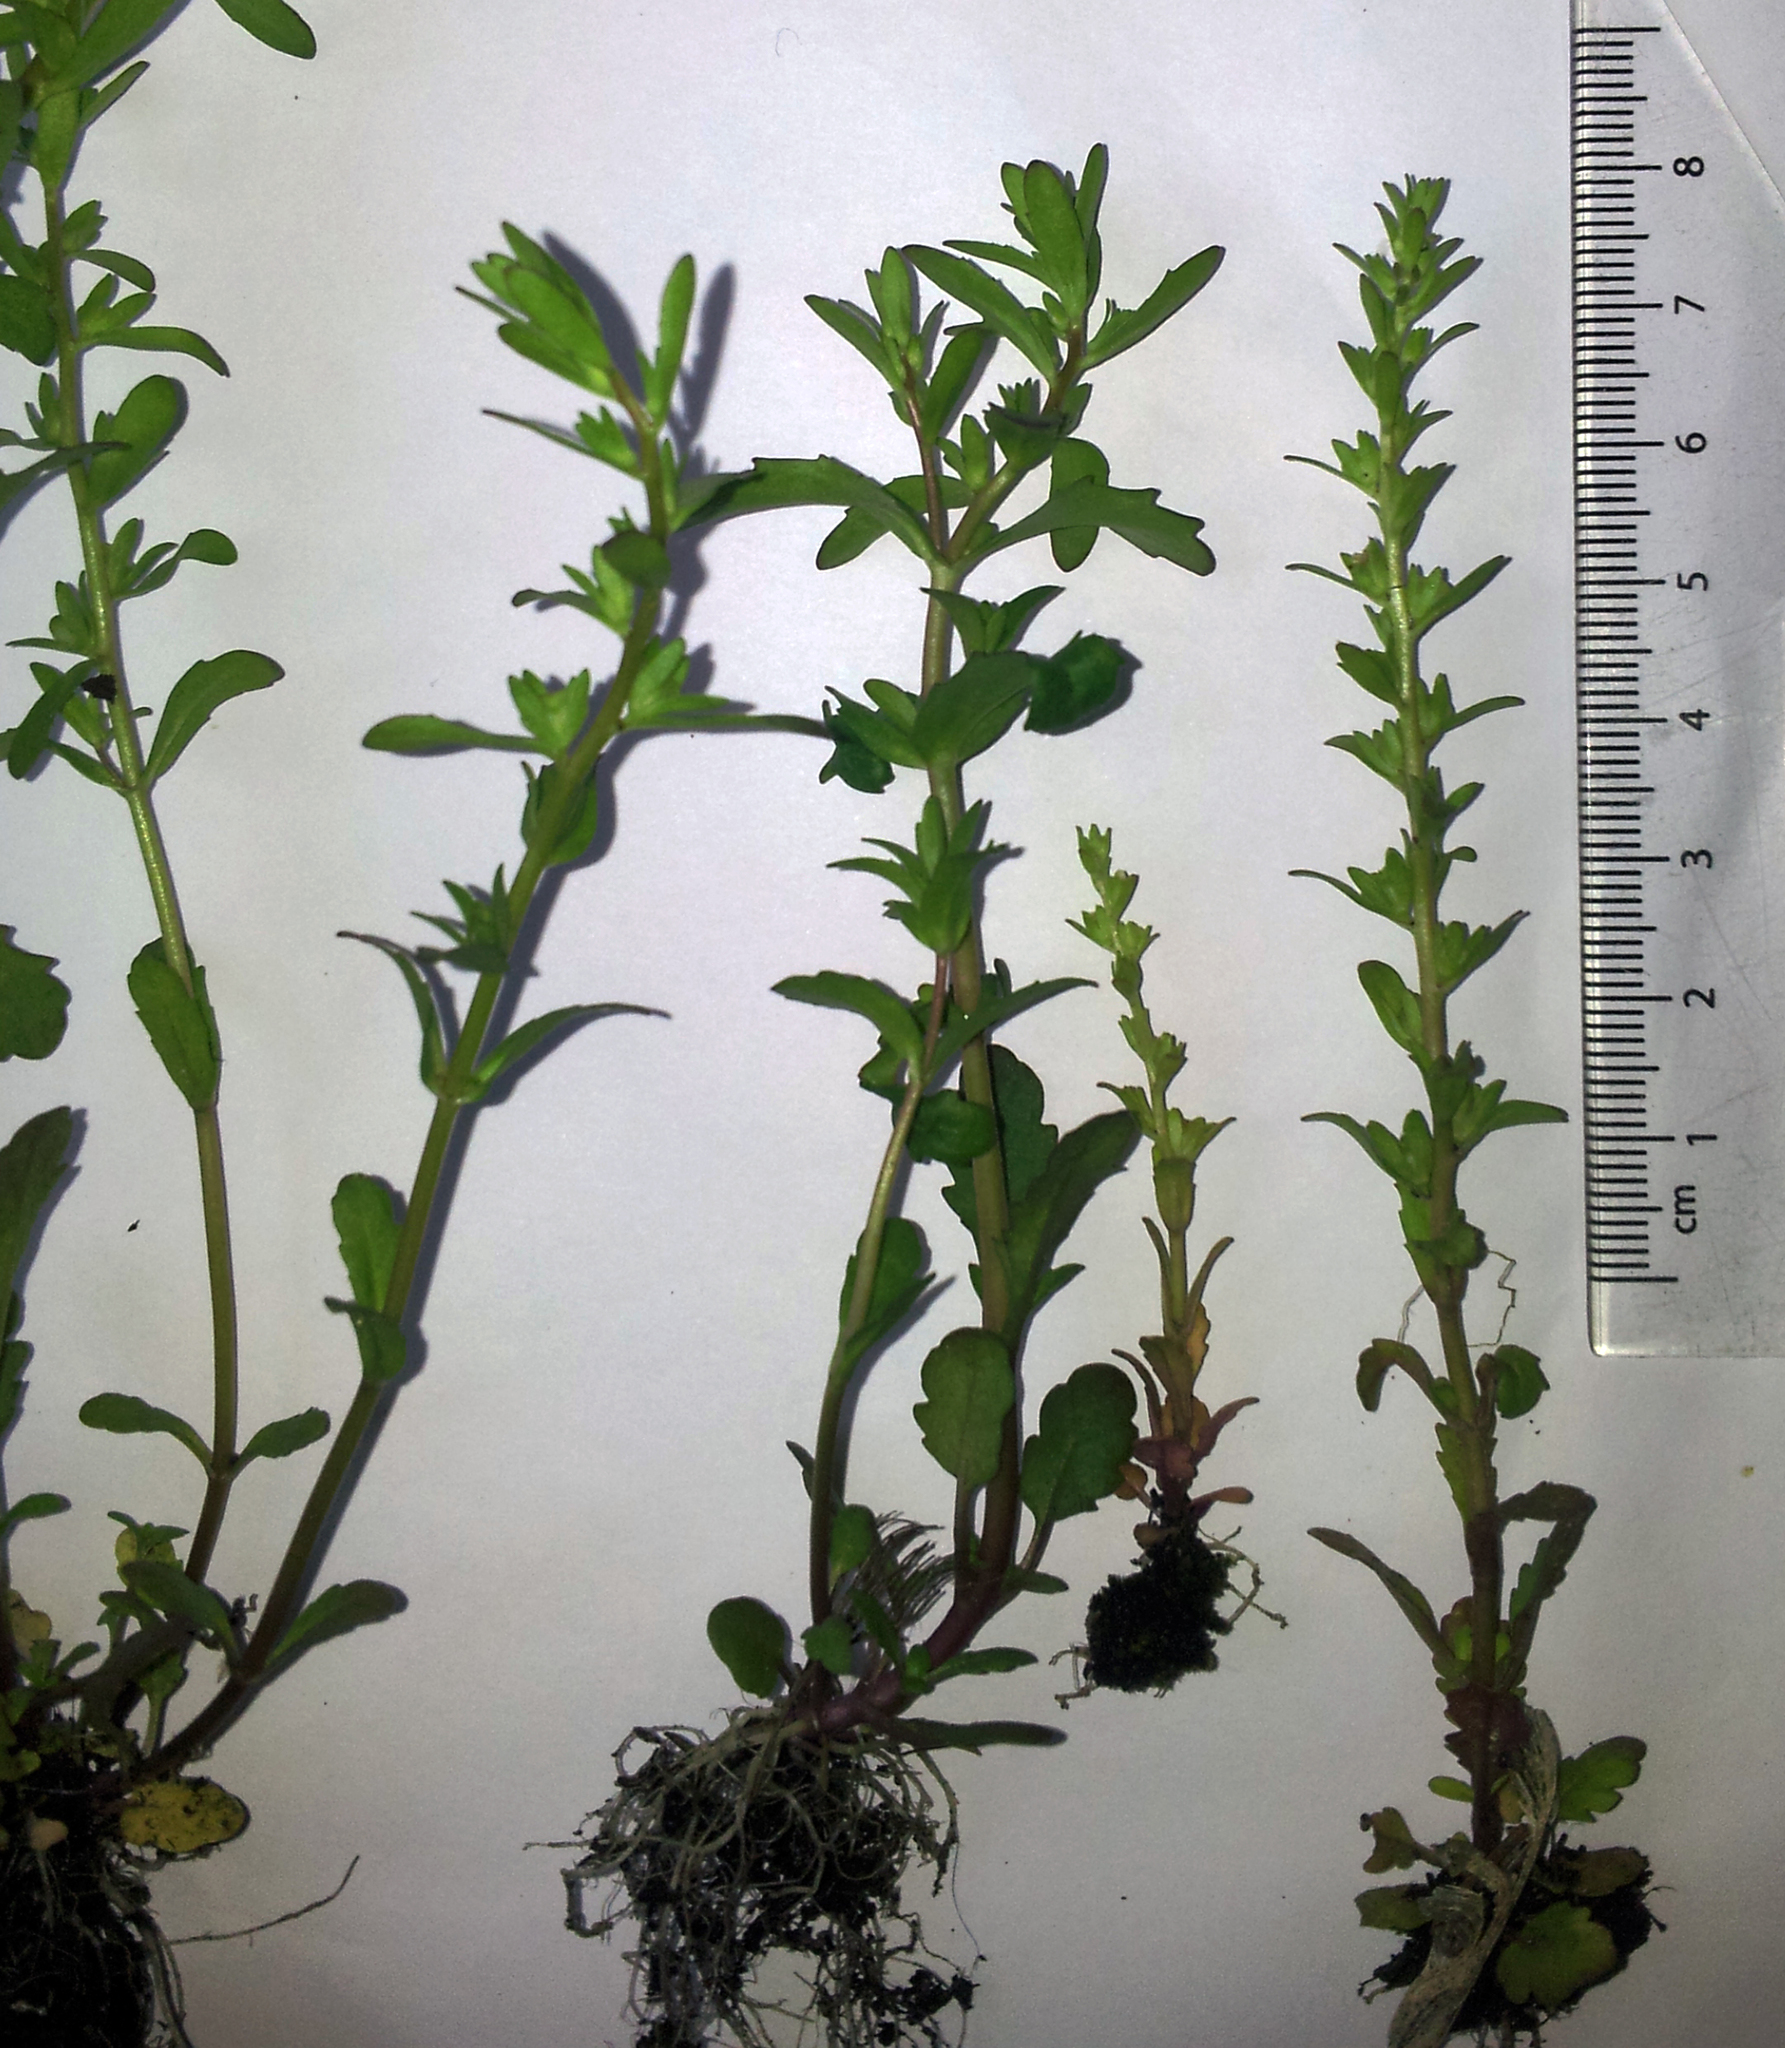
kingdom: Plantae
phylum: Tracheophyta
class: Magnoliopsida
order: Lamiales
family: Plantaginaceae
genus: Veronica
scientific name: Veronica peregrina
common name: Neckweed
